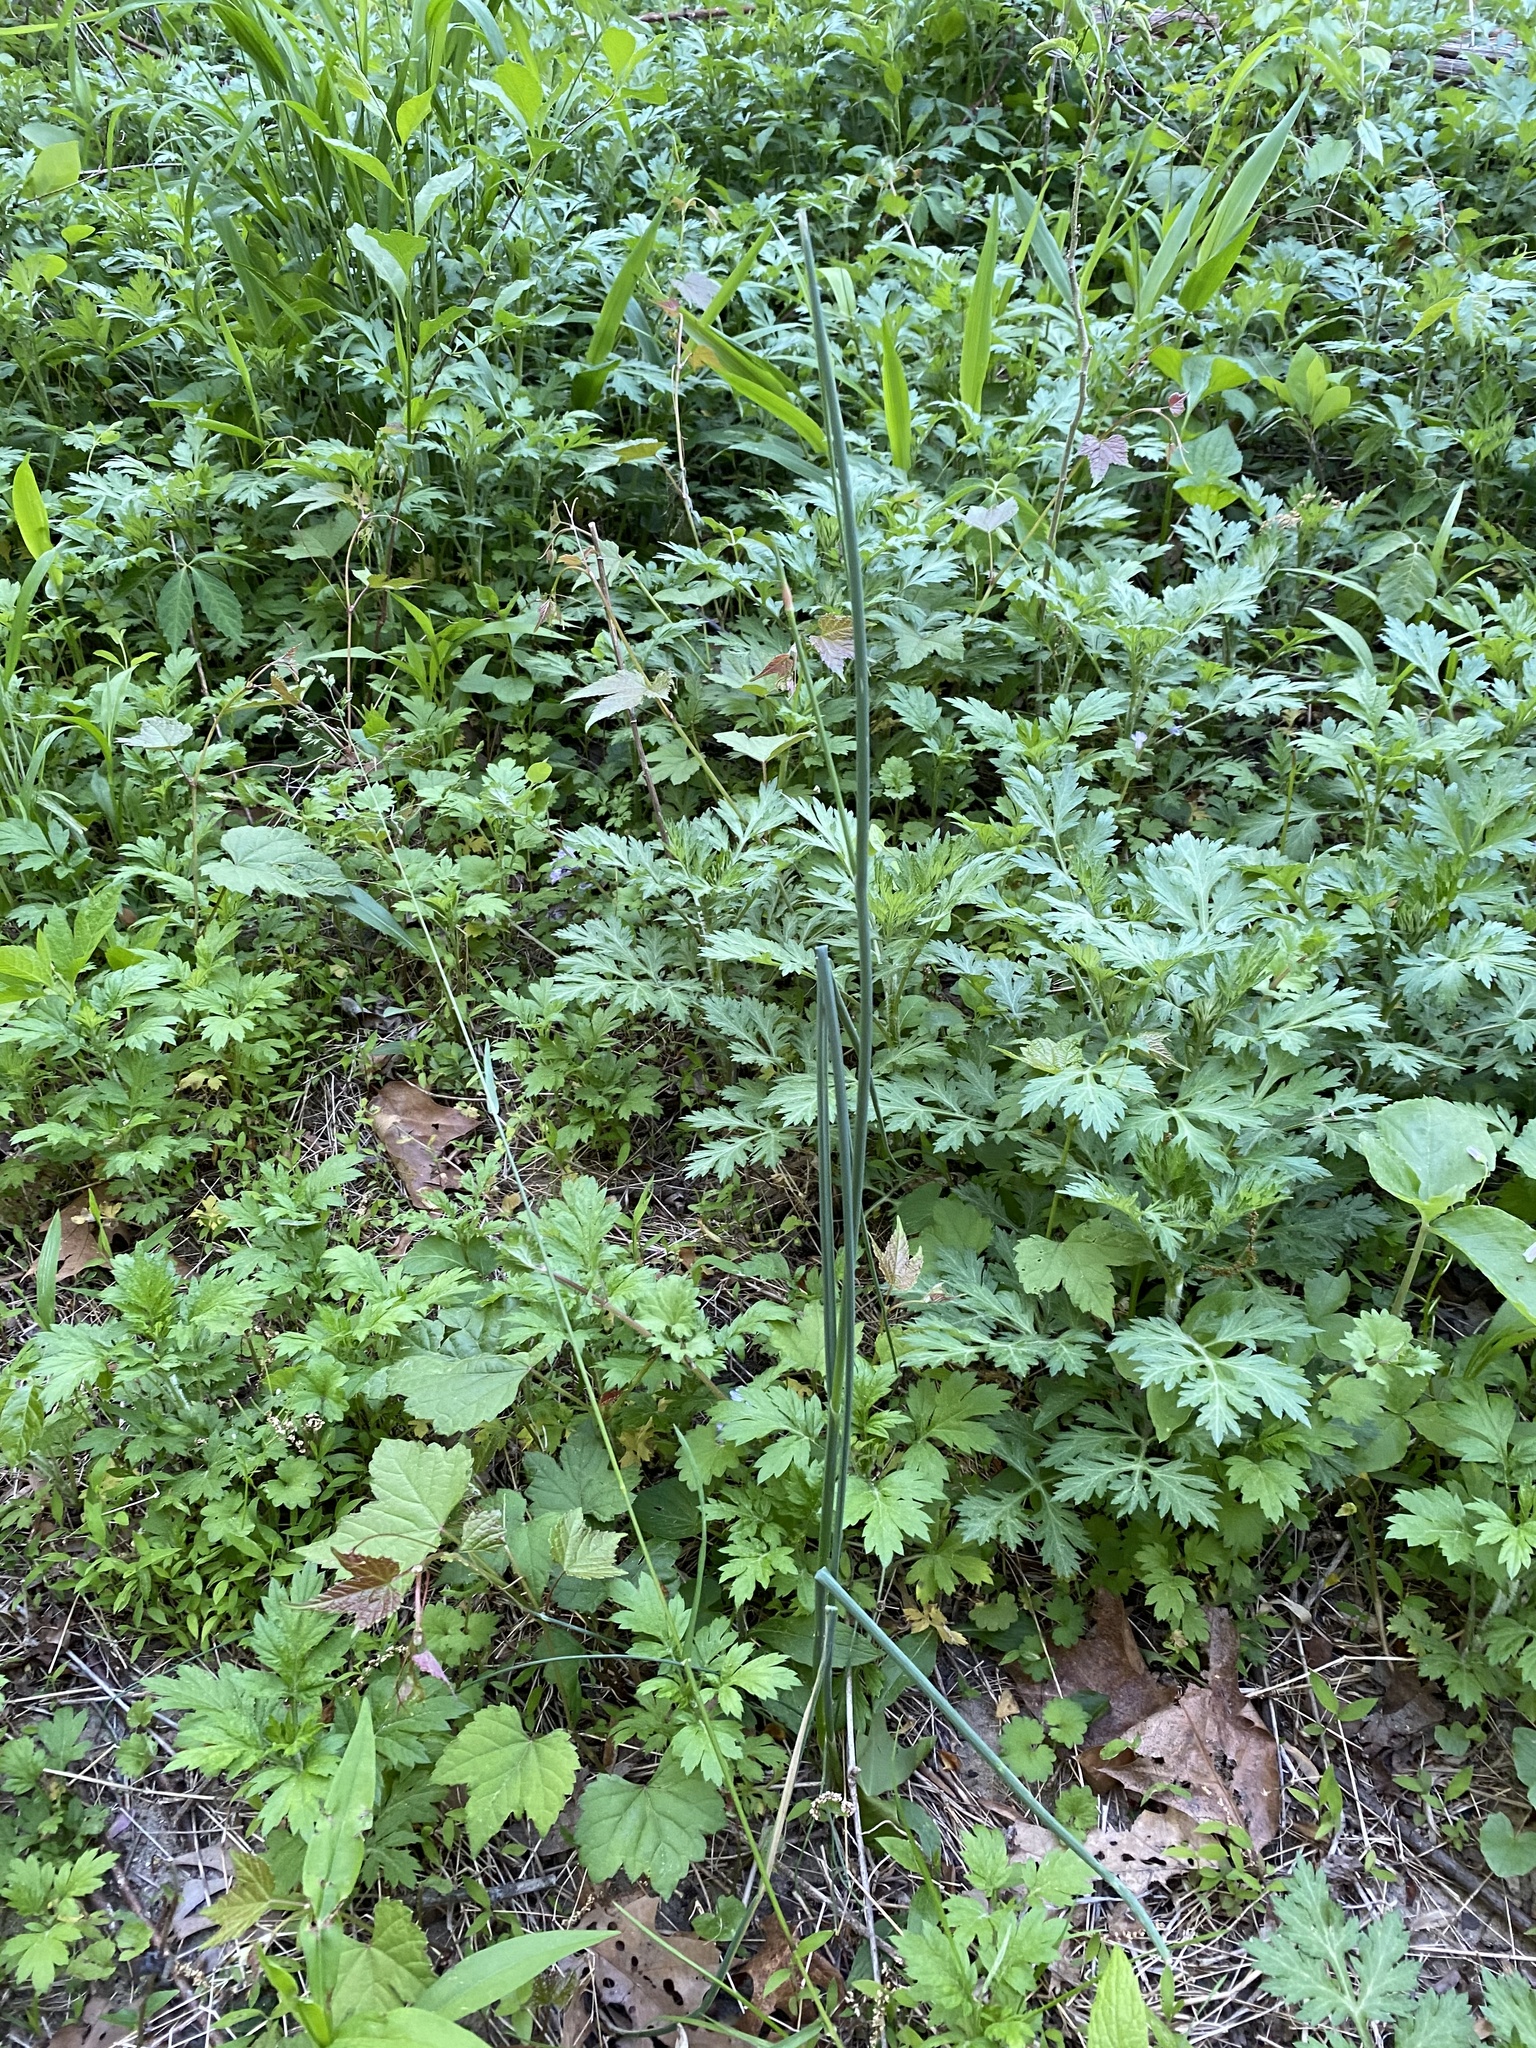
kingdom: Plantae
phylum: Tracheophyta
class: Liliopsida
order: Asparagales
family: Amaryllidaceae
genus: Allium
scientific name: Allium vineale
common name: Crow garlic
